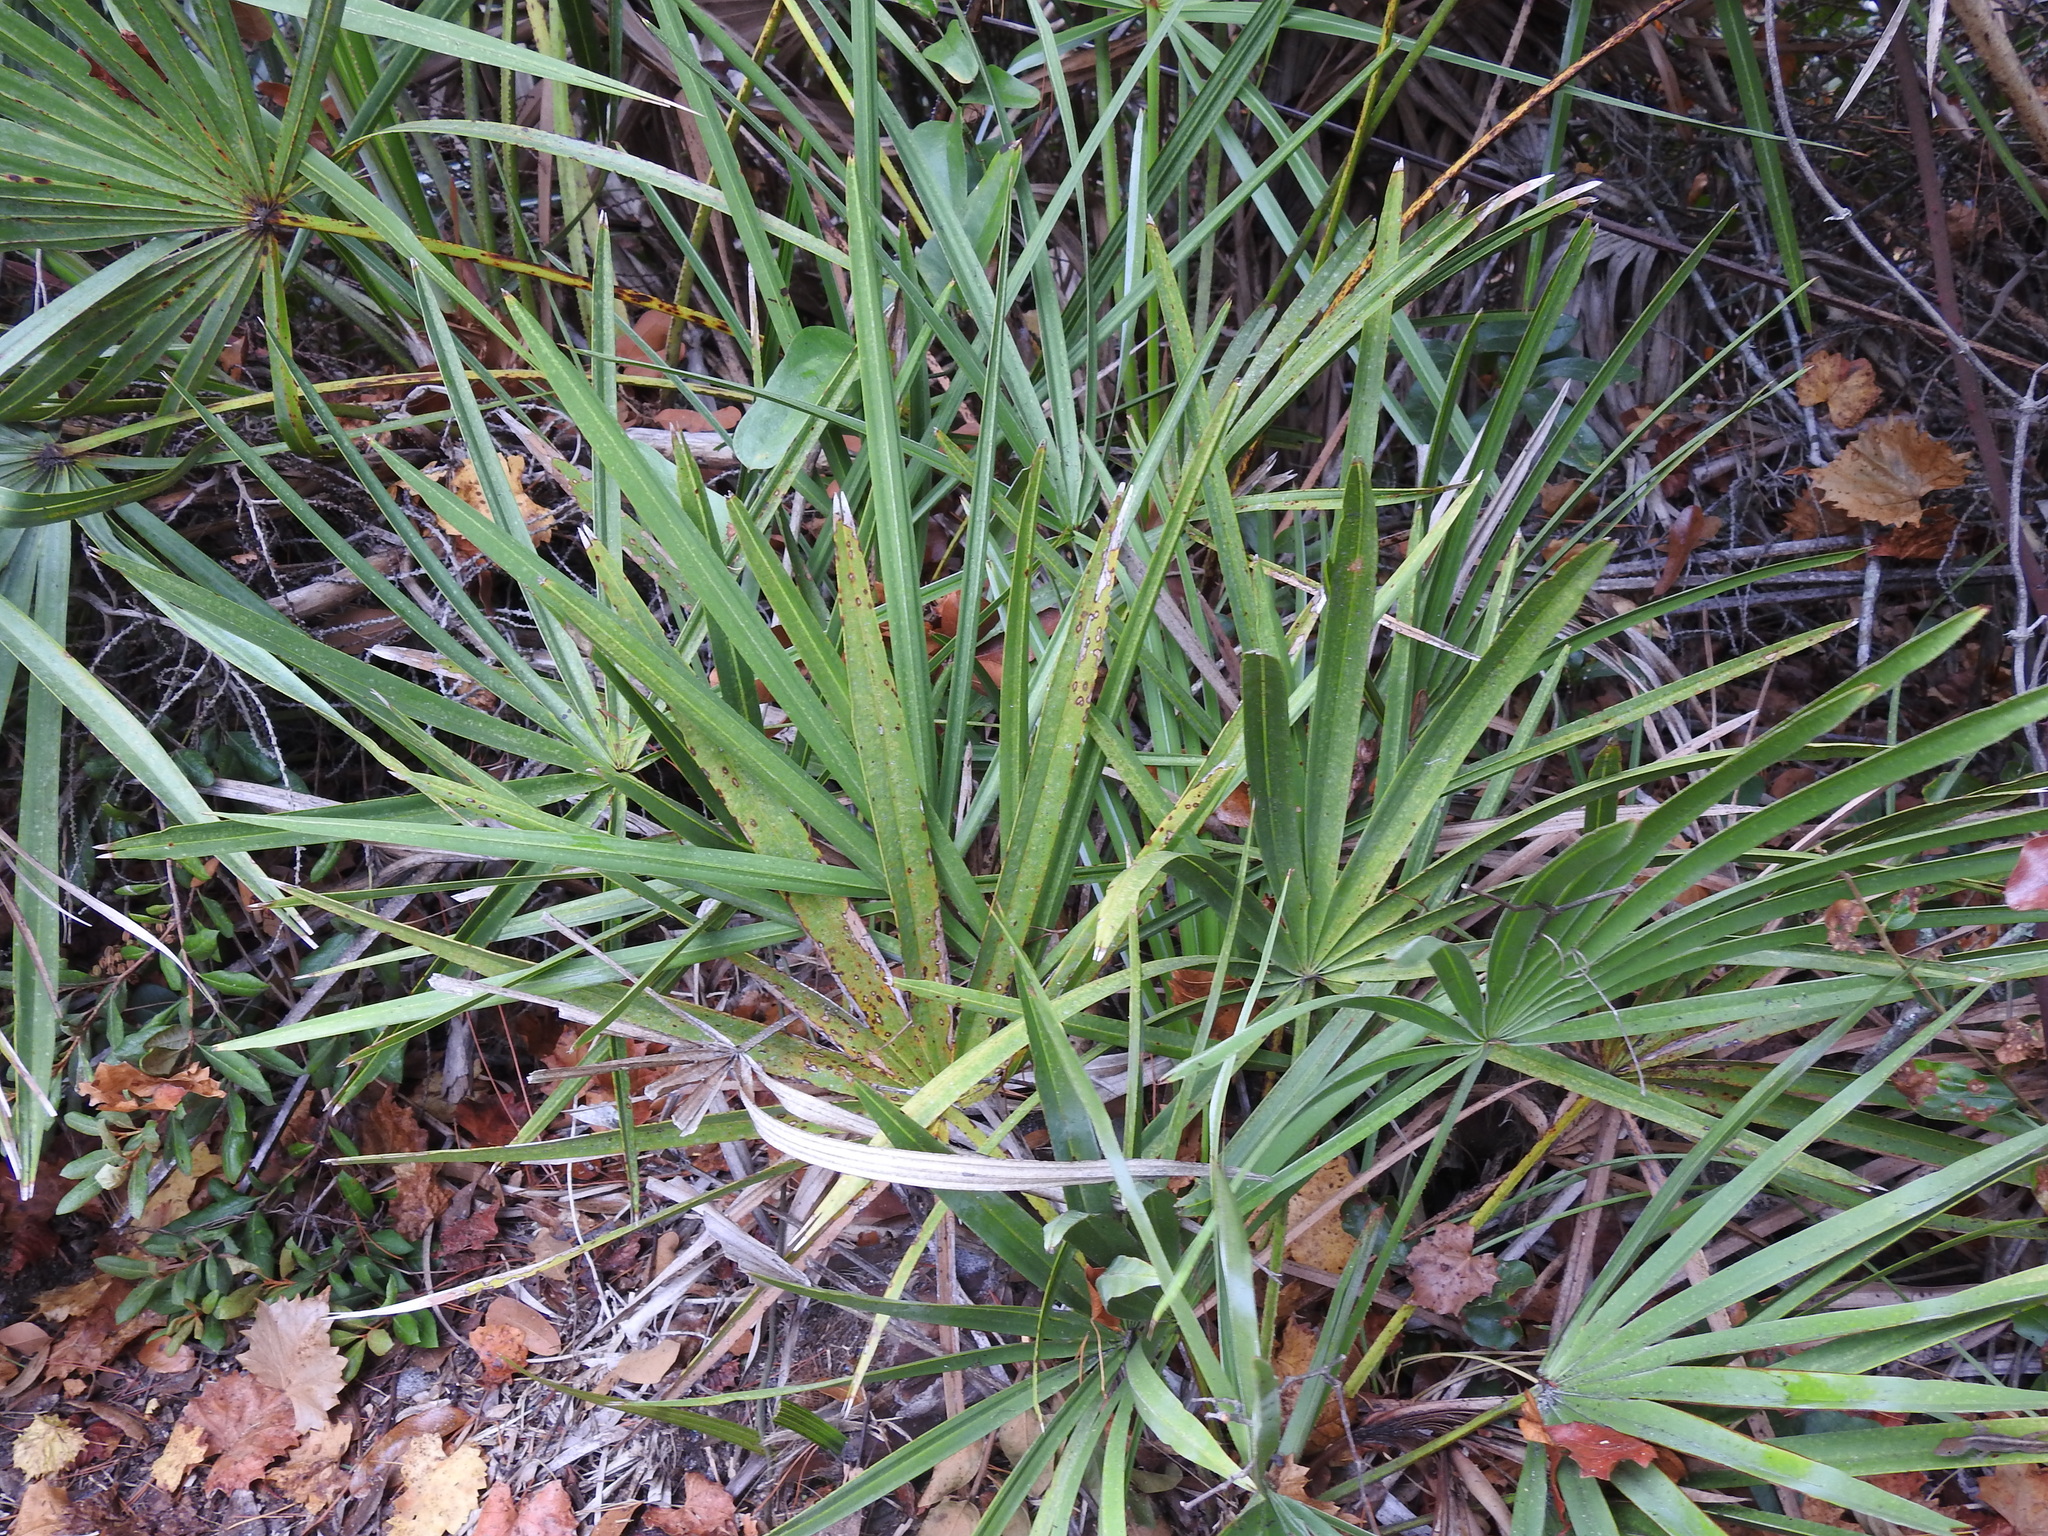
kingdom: Plantae
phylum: Tracheophyta
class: Liliopsida
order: Arecales
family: Arecaceae
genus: Serenoa
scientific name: Serenoa repens
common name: Saw-palmetto
